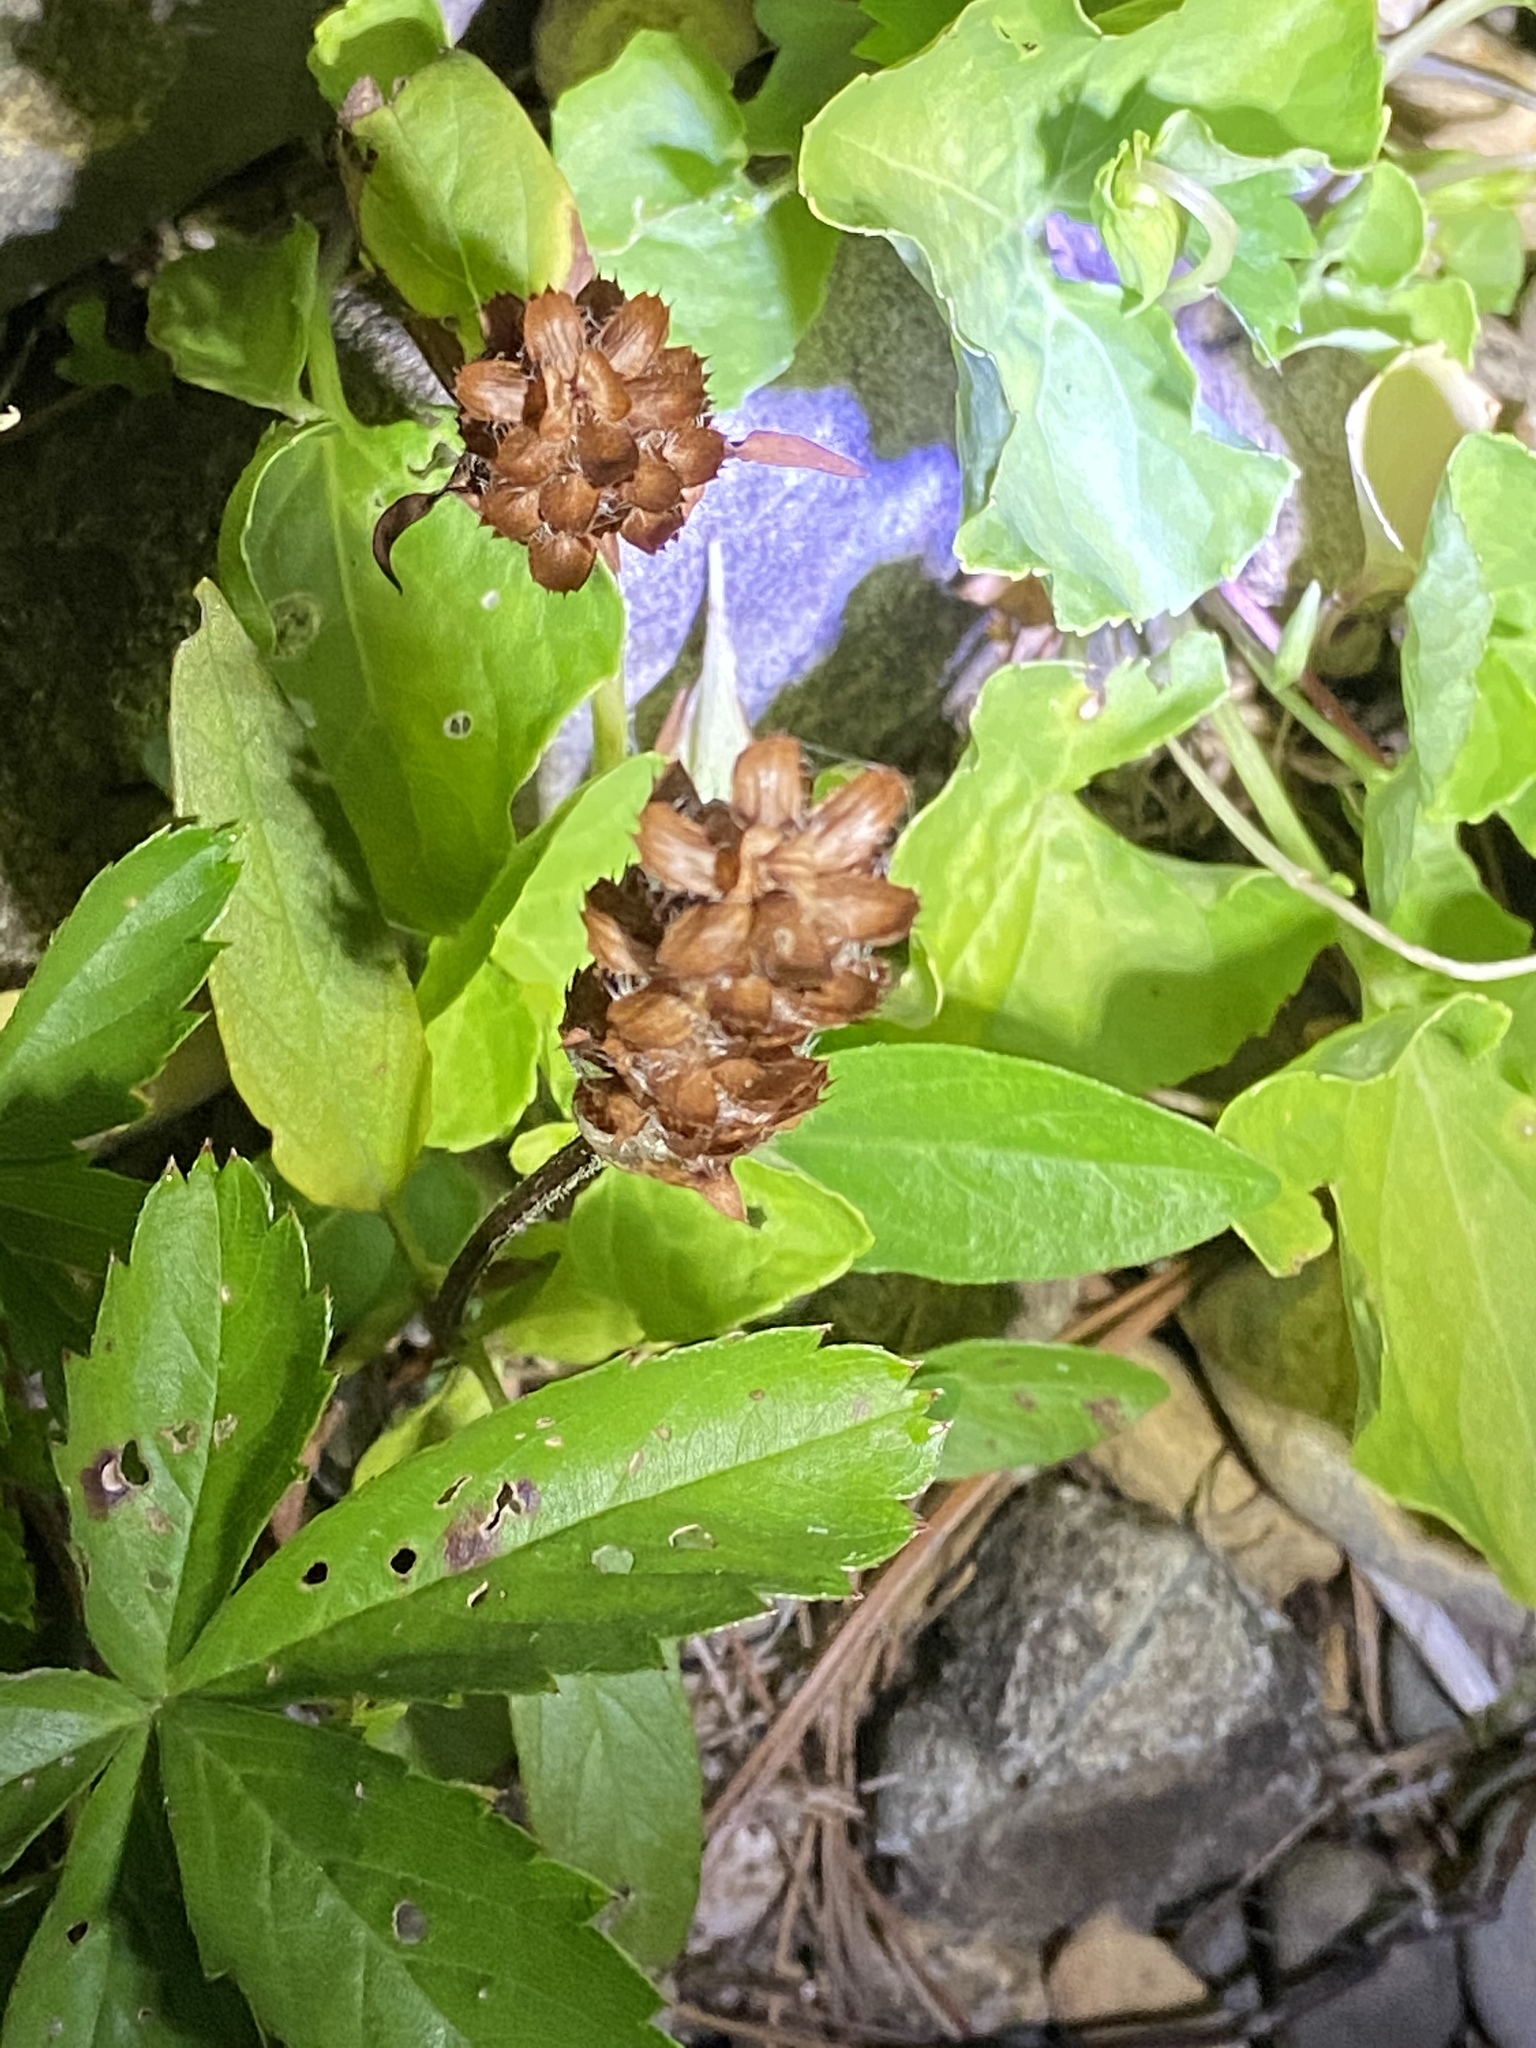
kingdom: Plantae
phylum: Tracheophyta
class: Magnoliopsida
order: Lamiales
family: Lamiaceae
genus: Prunella
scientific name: Prunella vulgaris
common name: Heal-all
